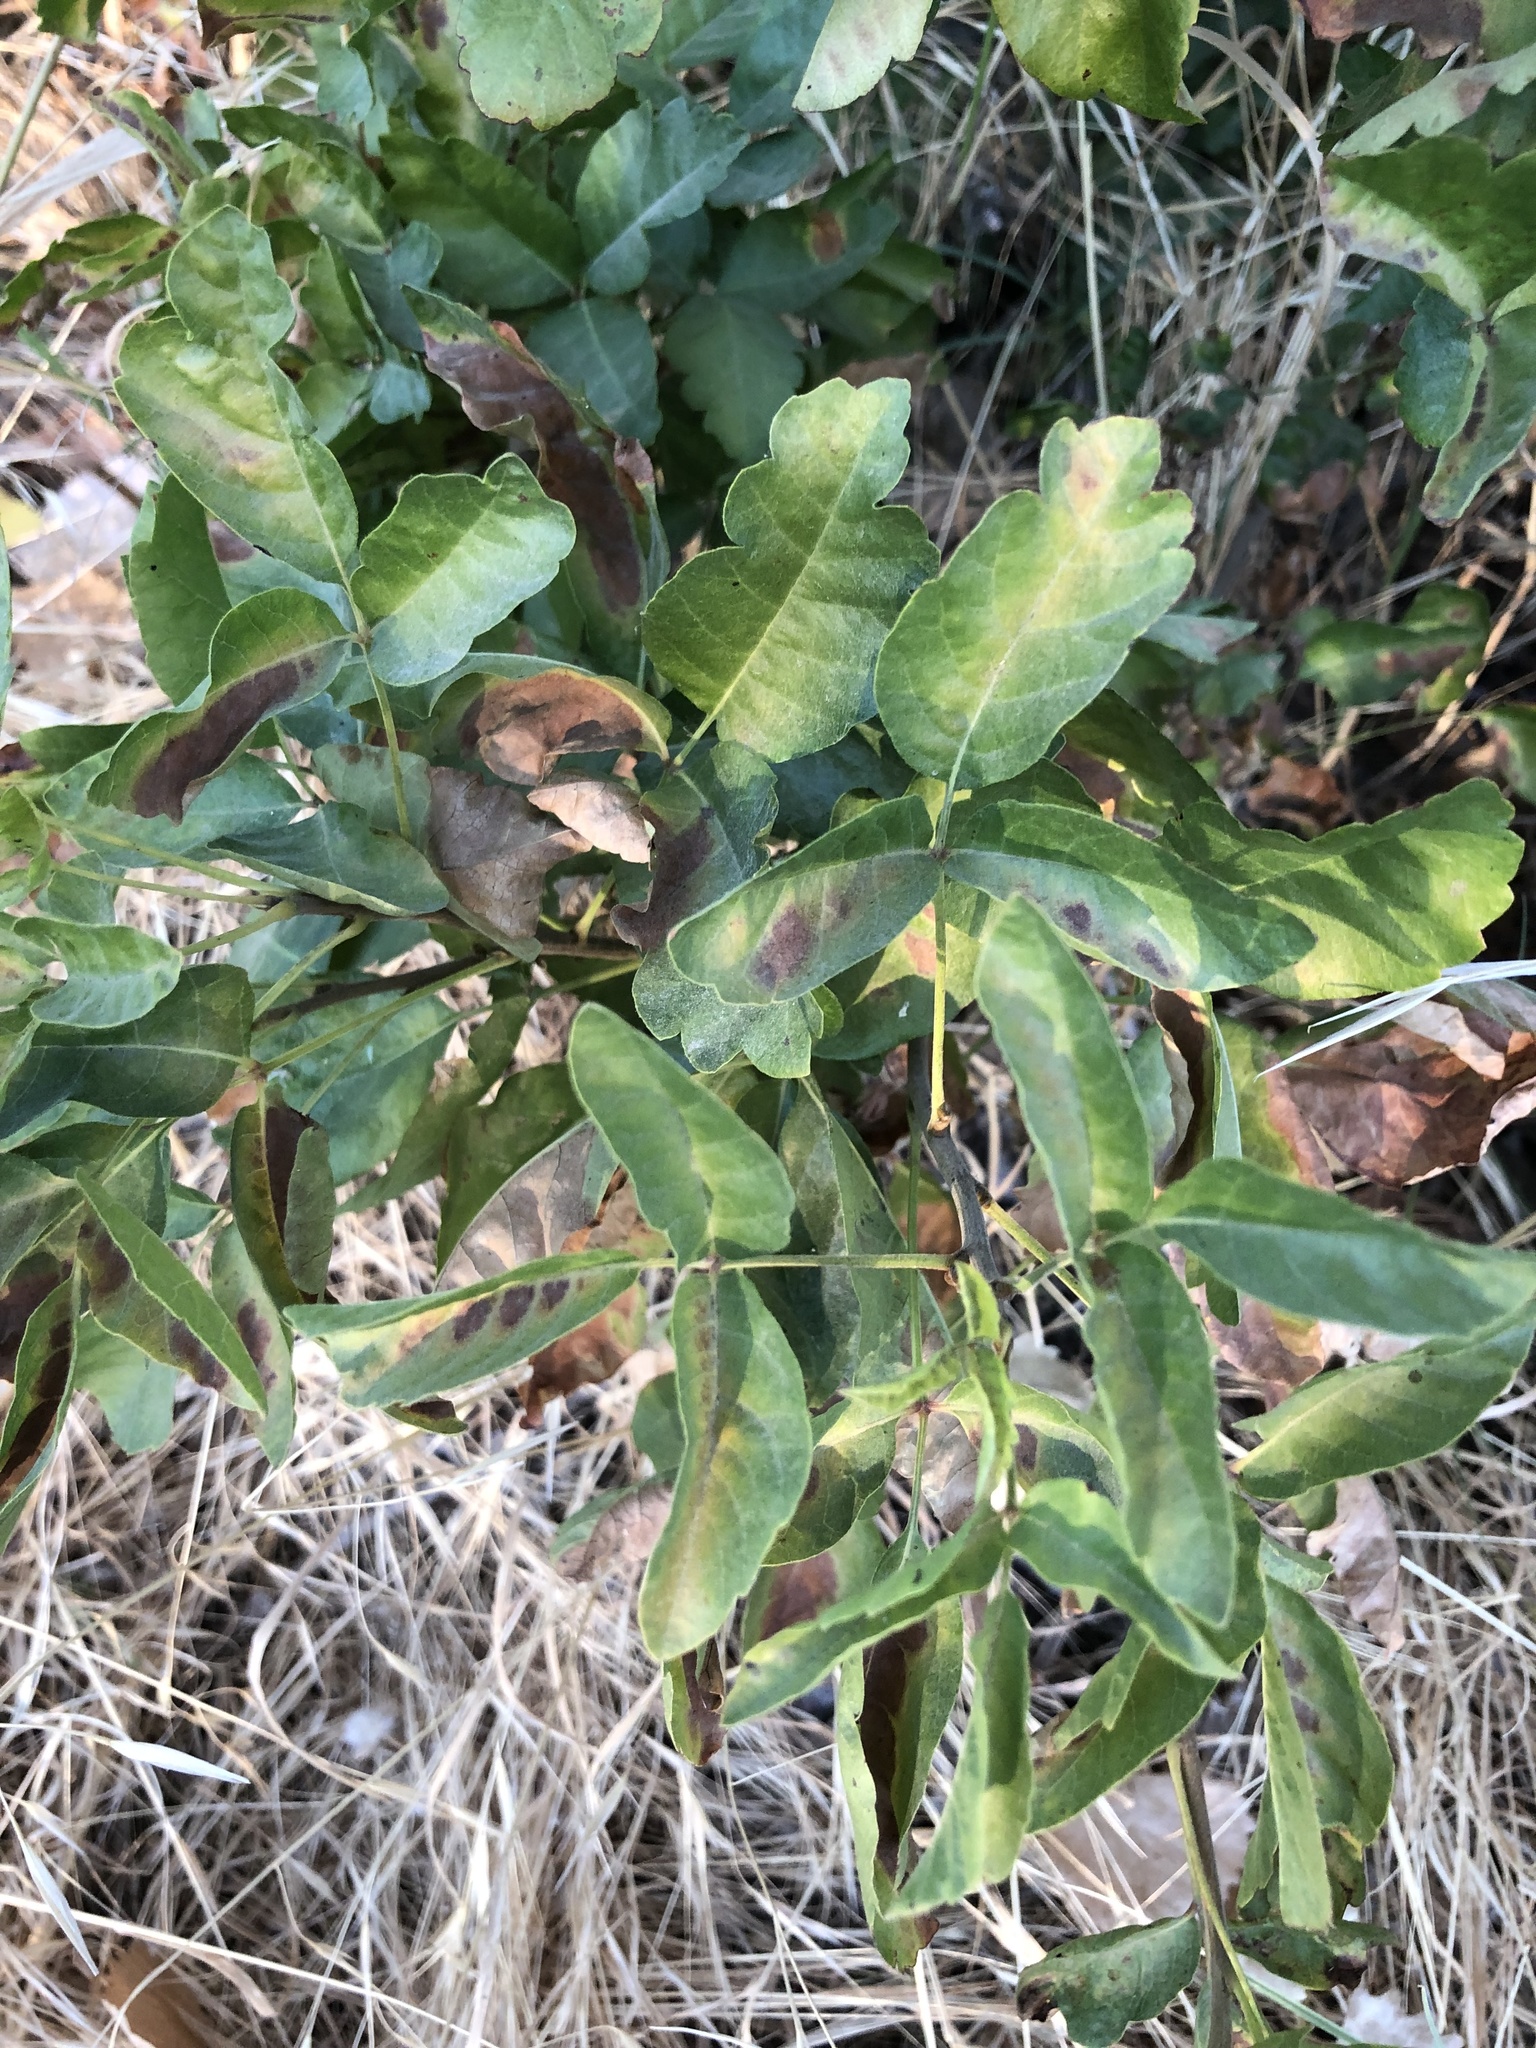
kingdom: Plantae
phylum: Tracheophyta
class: Magnoliopsida
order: Sapindales
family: Anacardiaceae
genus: Toxicodendron
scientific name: Toxicodendron diversilobum
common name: Pacific poison-oak
